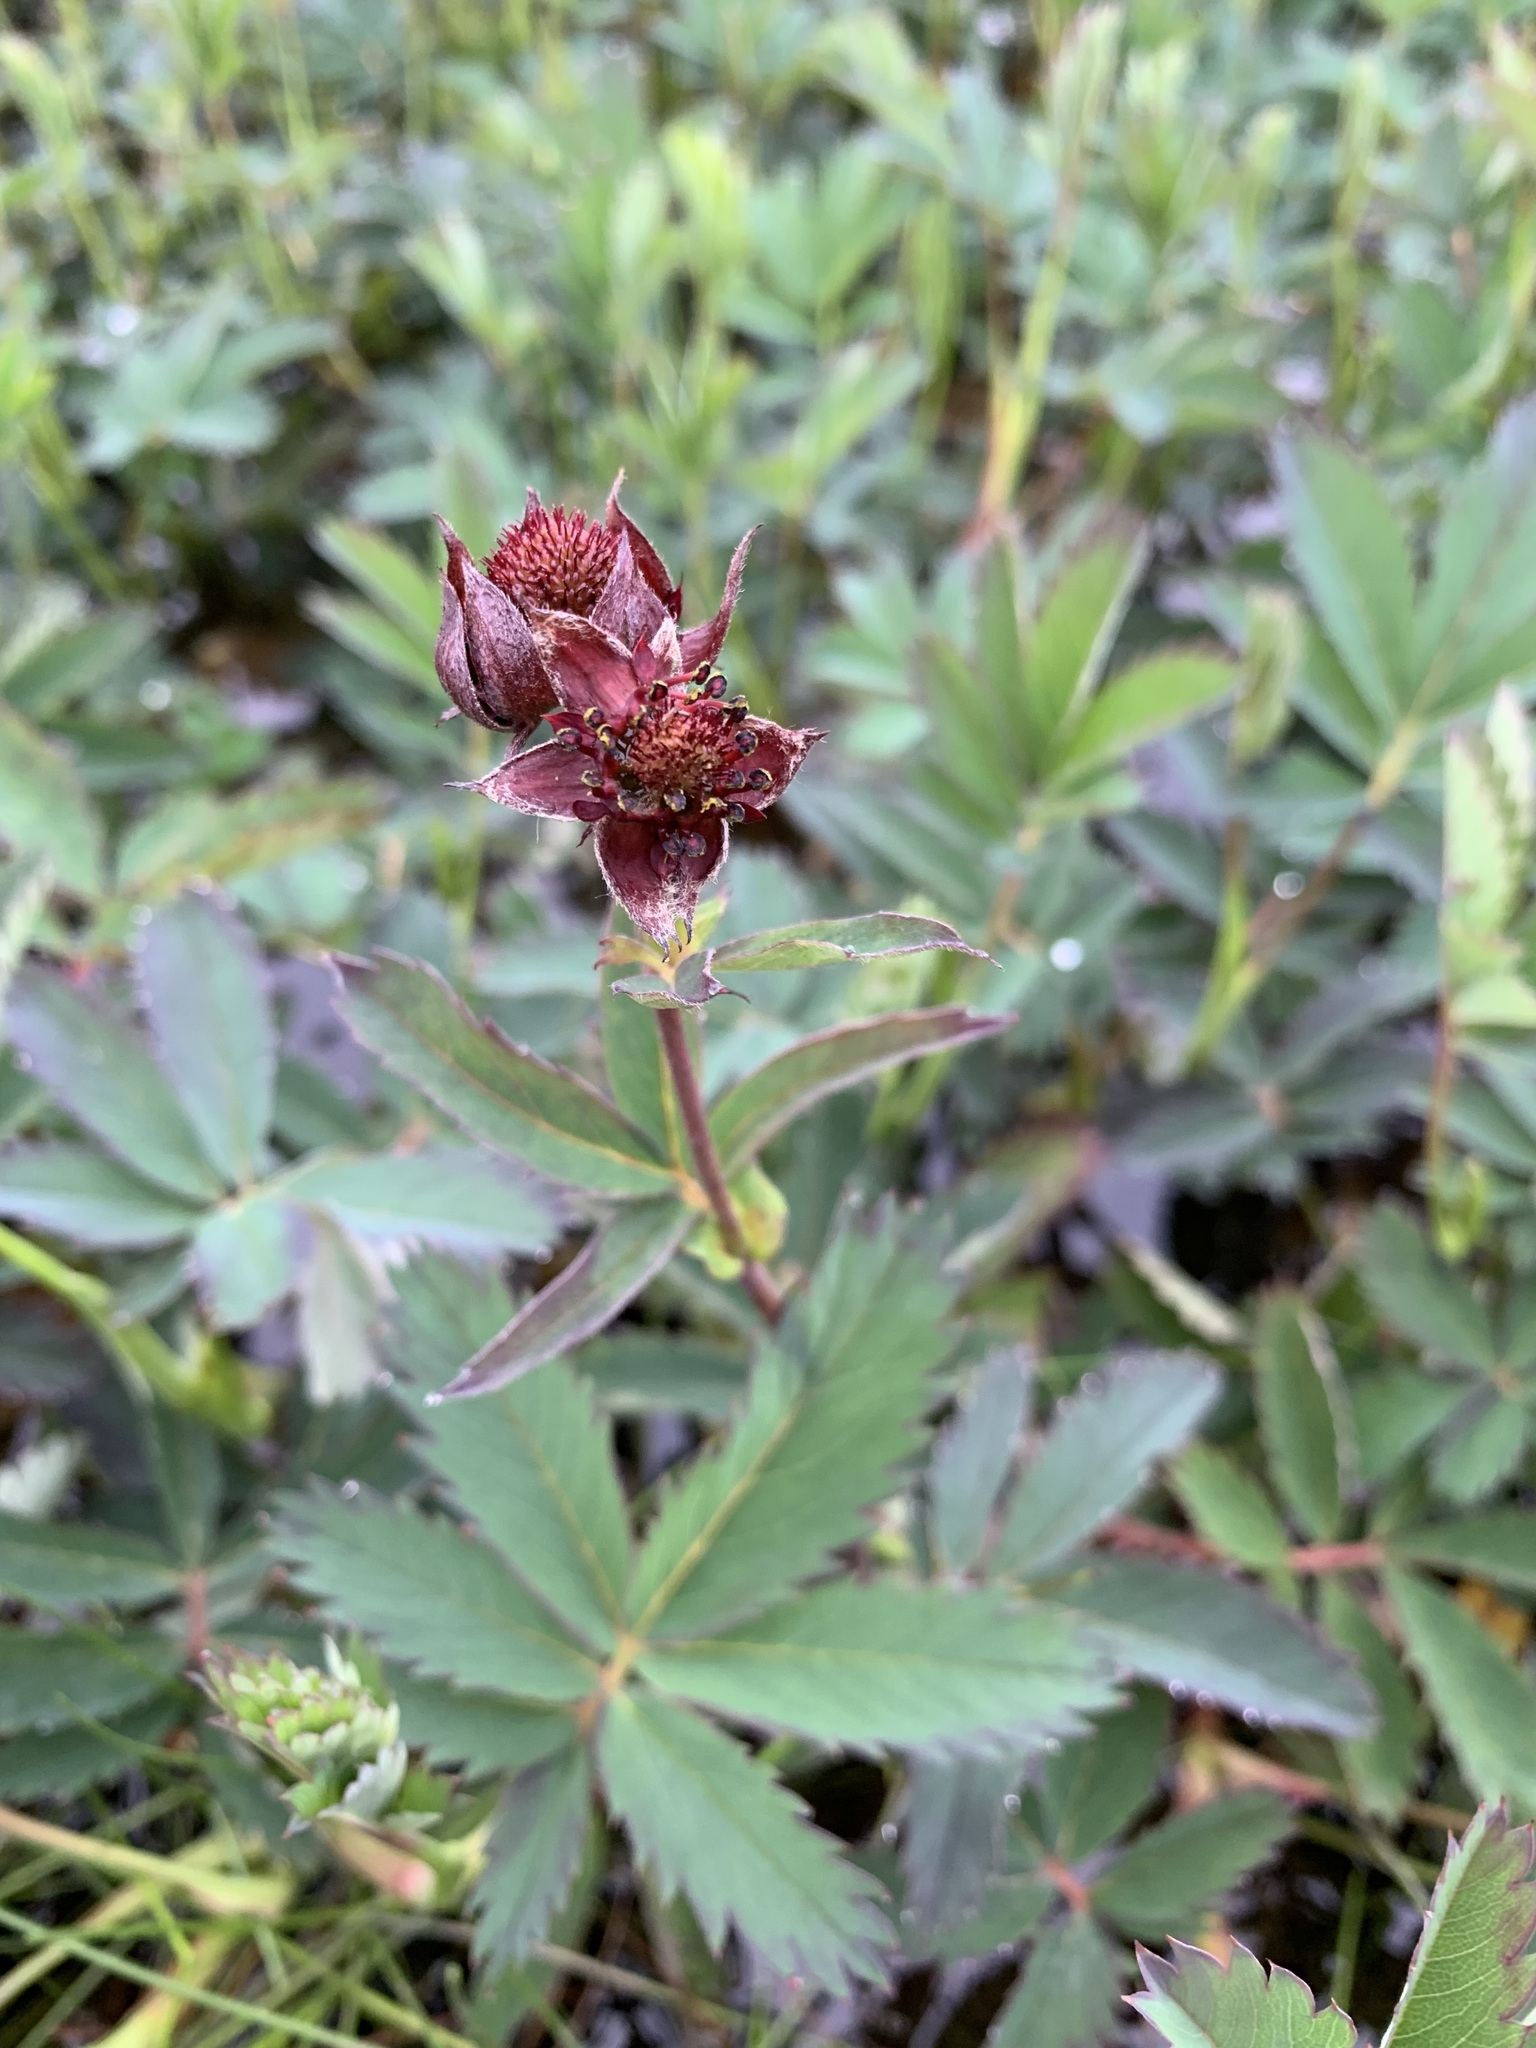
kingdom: Plantae
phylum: Tracheophyta
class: Magnoliopsida
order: Rosales
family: Rosaceae
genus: Comarum
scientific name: Comarum palustre
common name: Marsh cinquefoil
